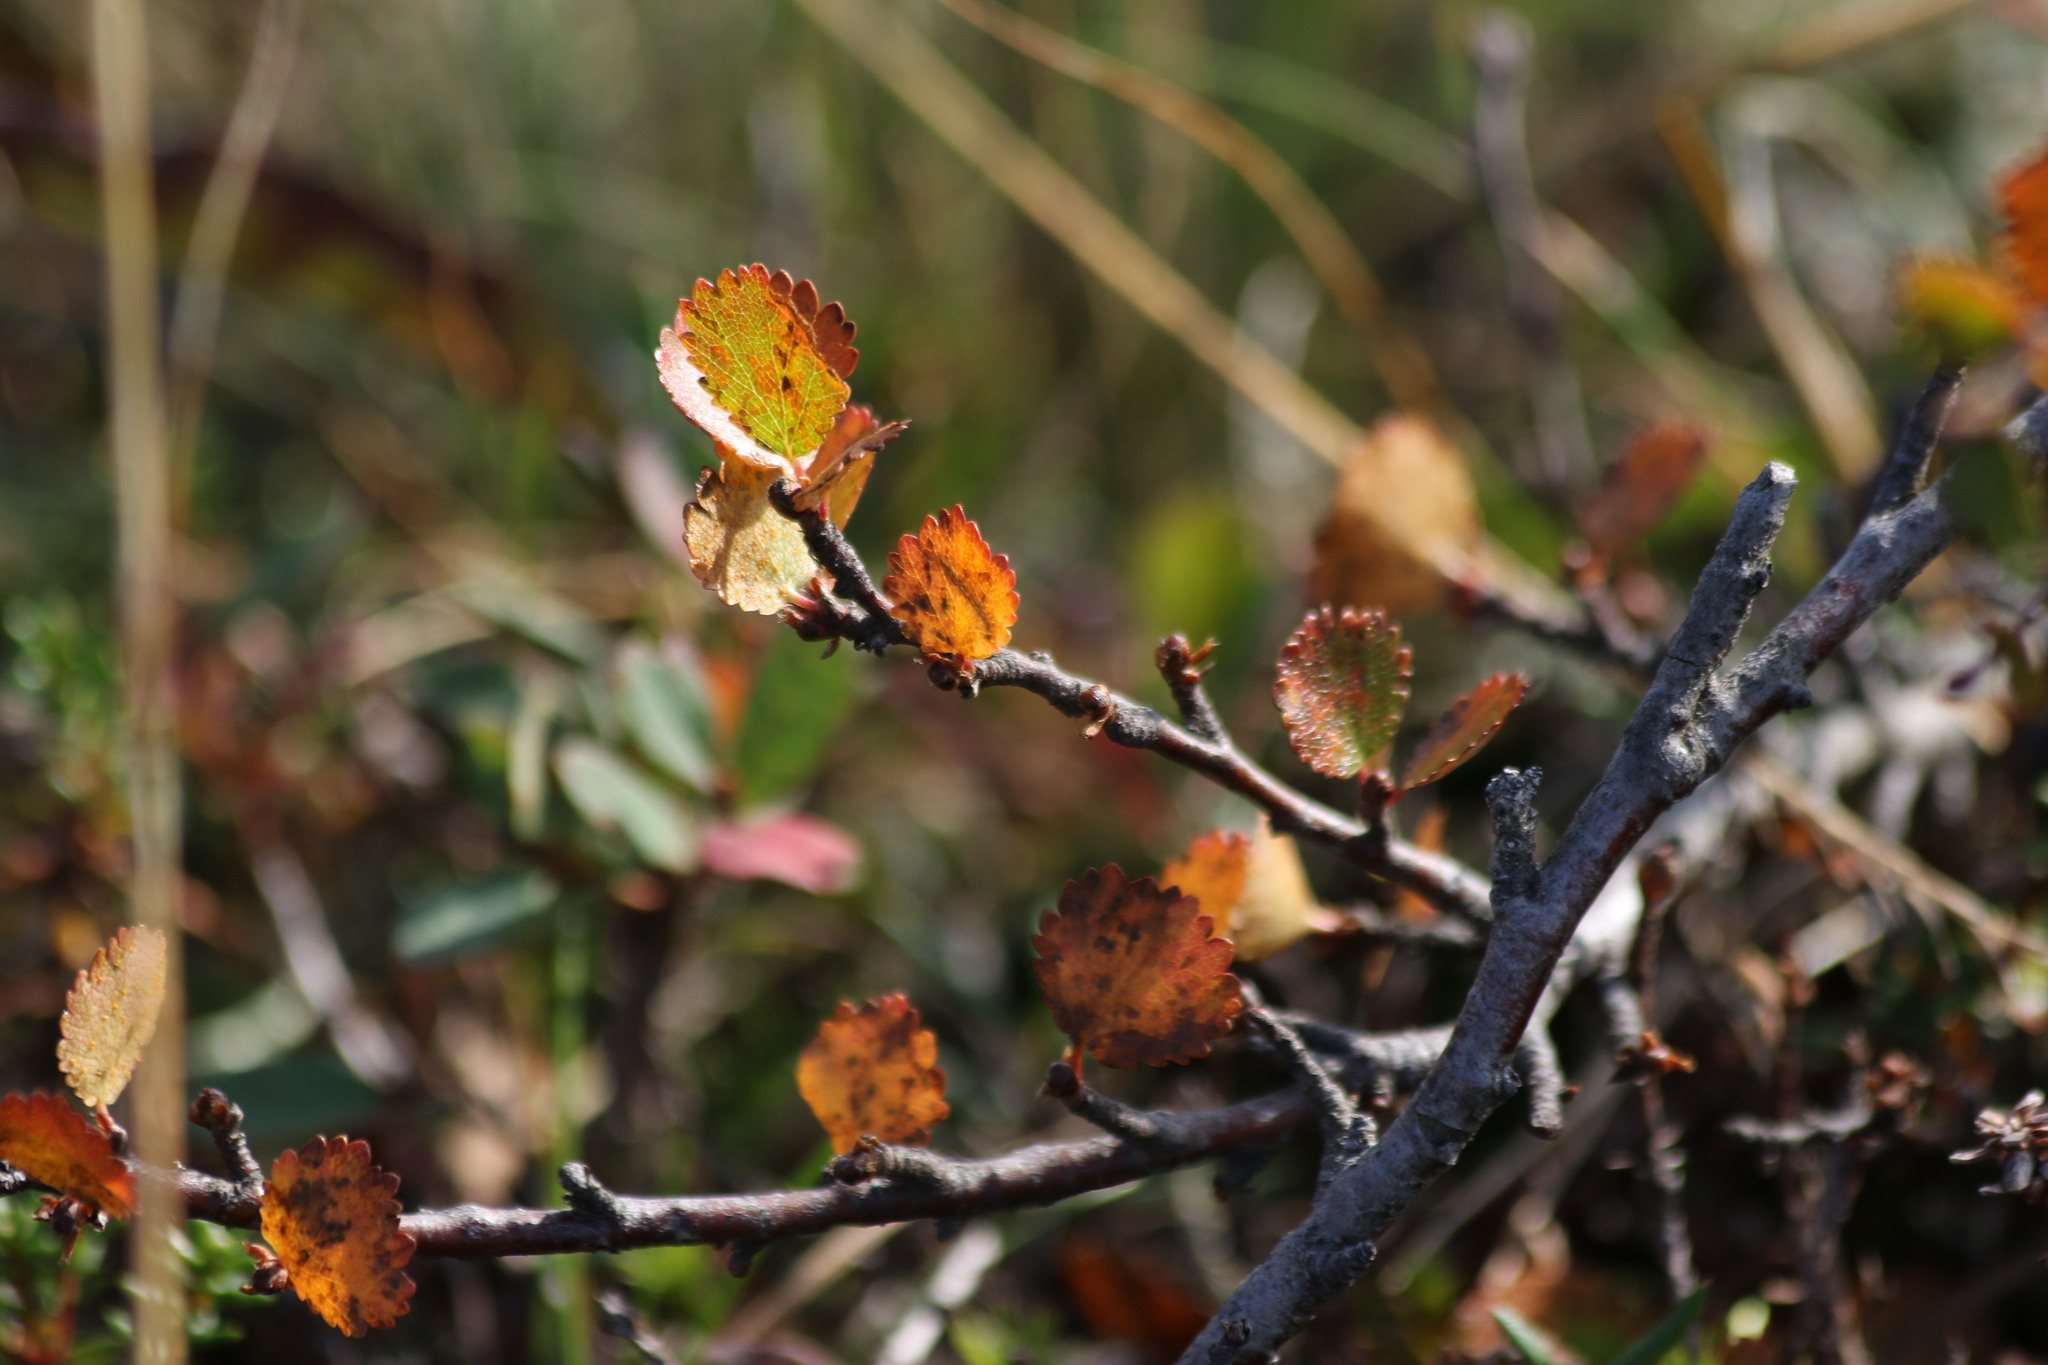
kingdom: Plantae
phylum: Tracheophyta
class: Magnoliopsida
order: Fagales
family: Betulaceae
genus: Betula
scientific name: Betula nana
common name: Arctic dwarf birch
